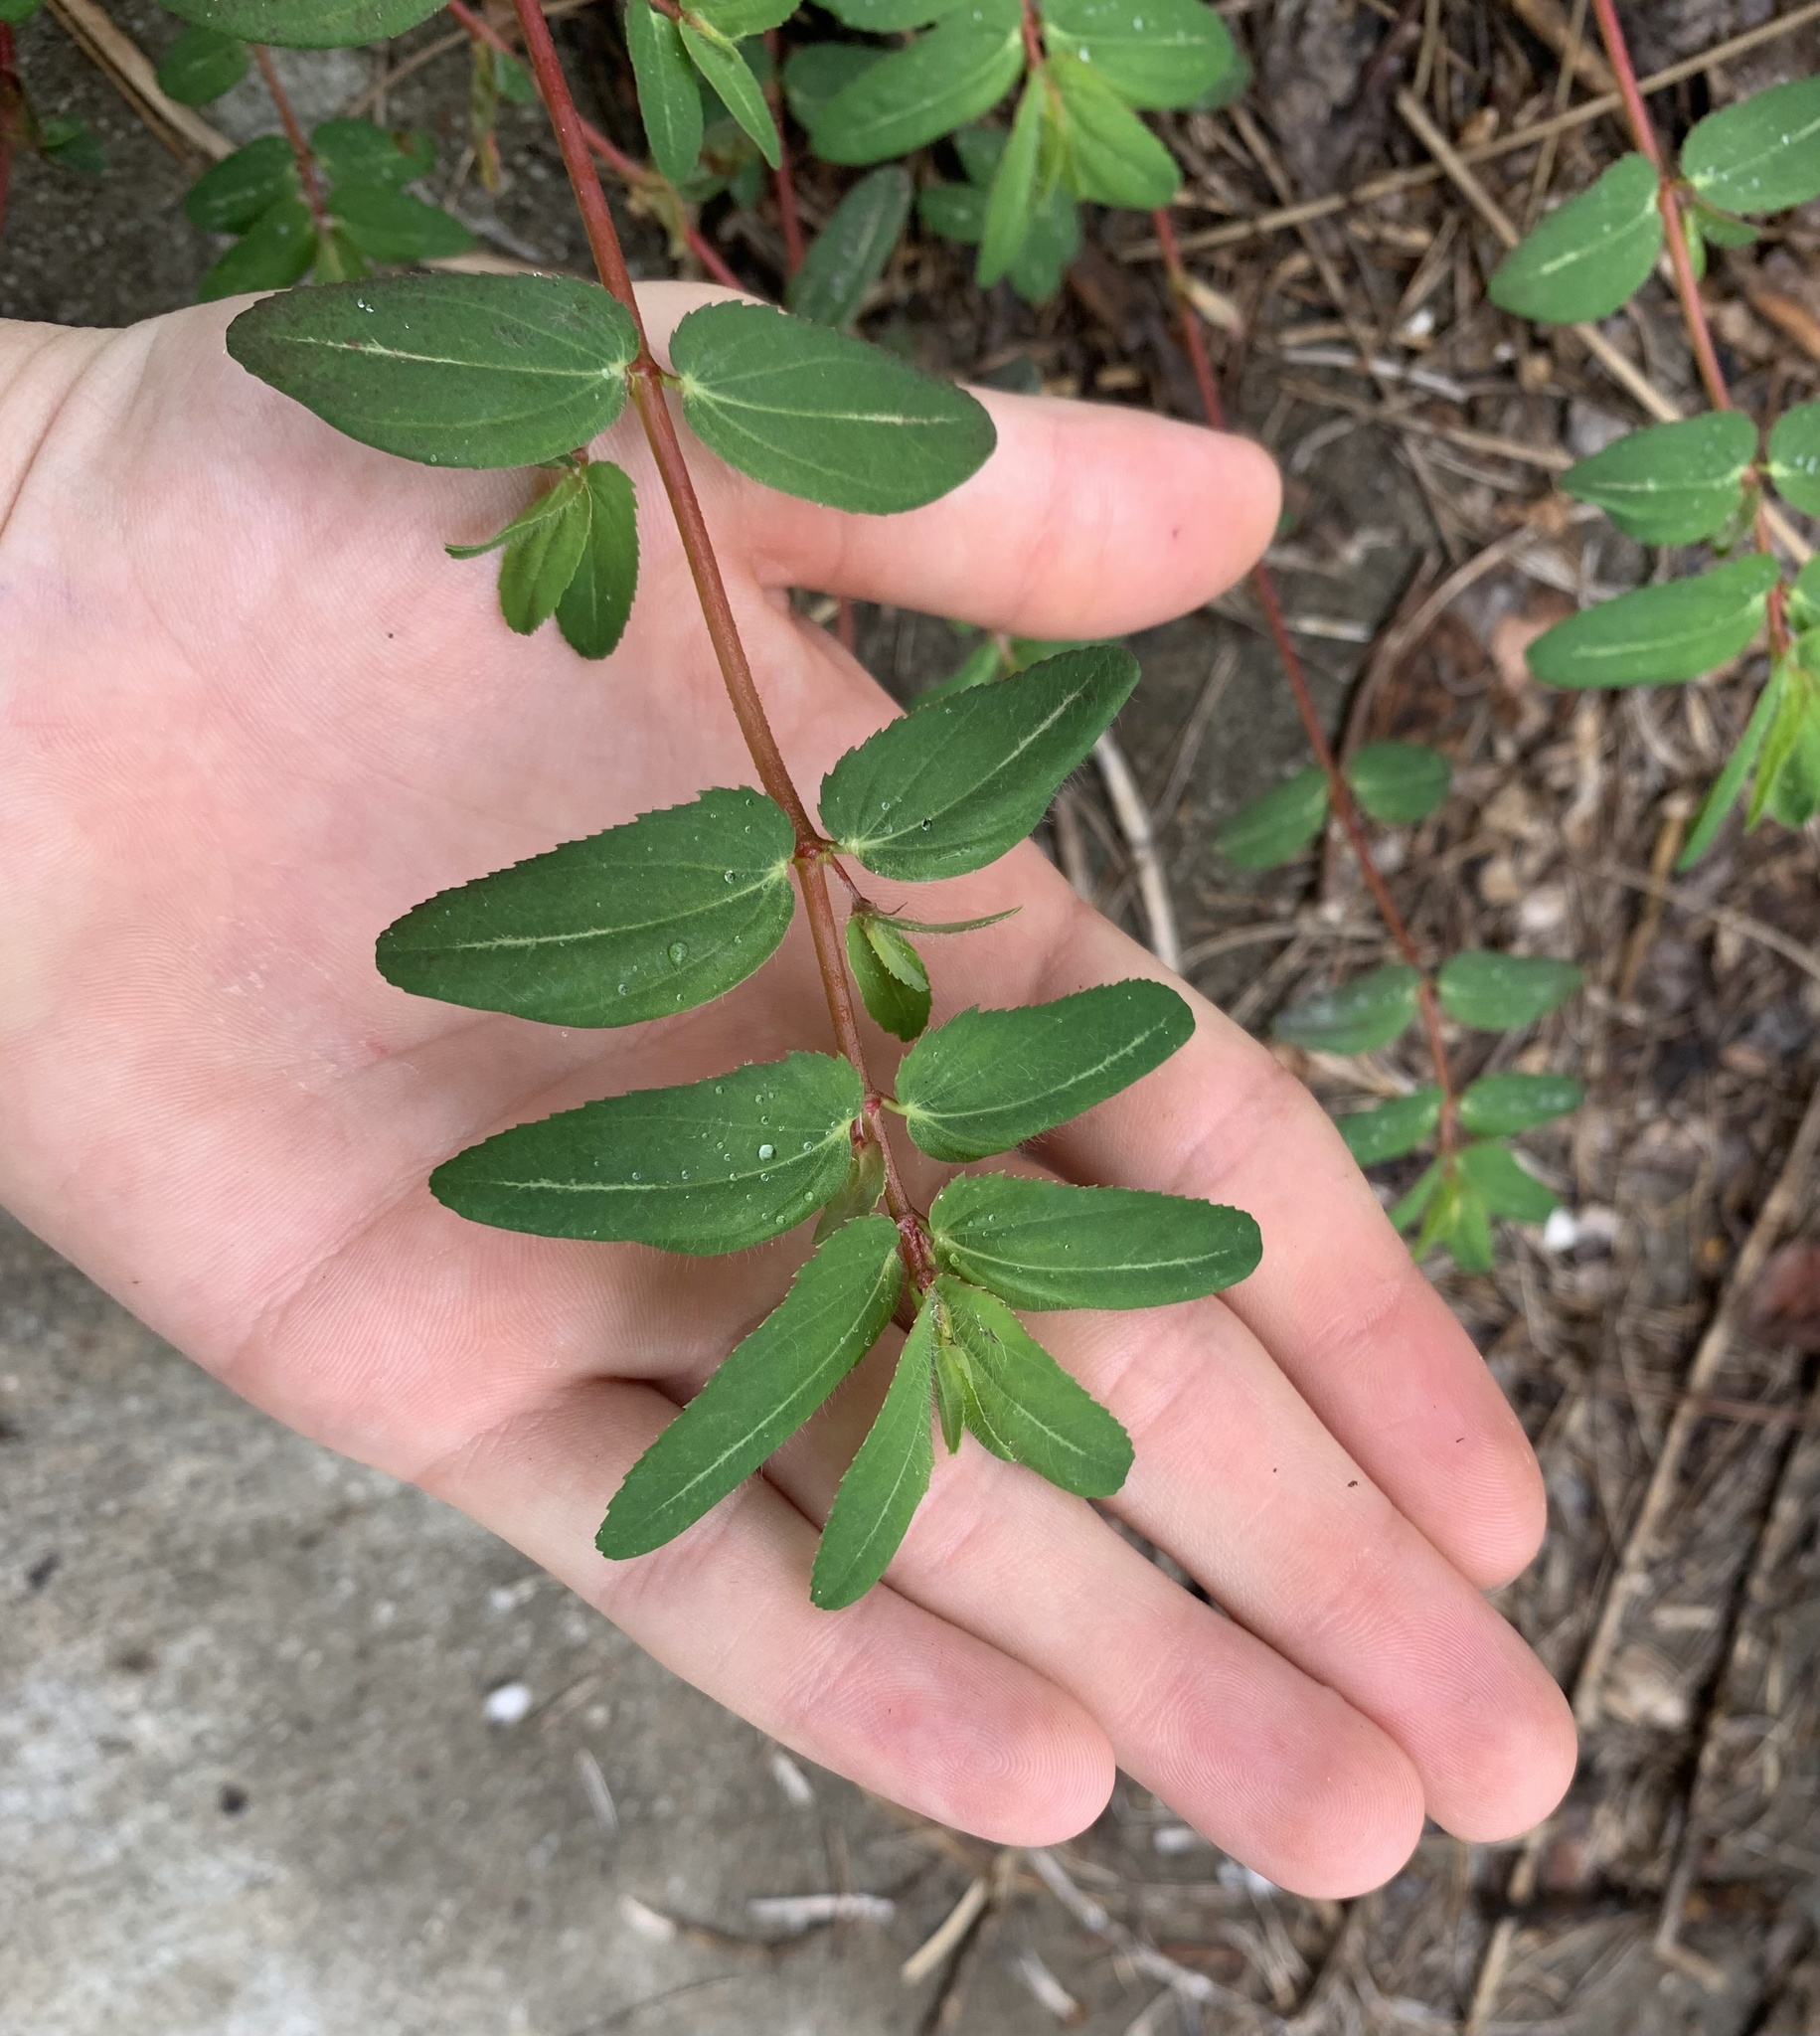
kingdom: Plantae
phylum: Tracheophyta
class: Magnoliopsida
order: Malpighiales
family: Euphorbiaceae
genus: Euphorbia
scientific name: Euphorbia nutans
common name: Eyebane
